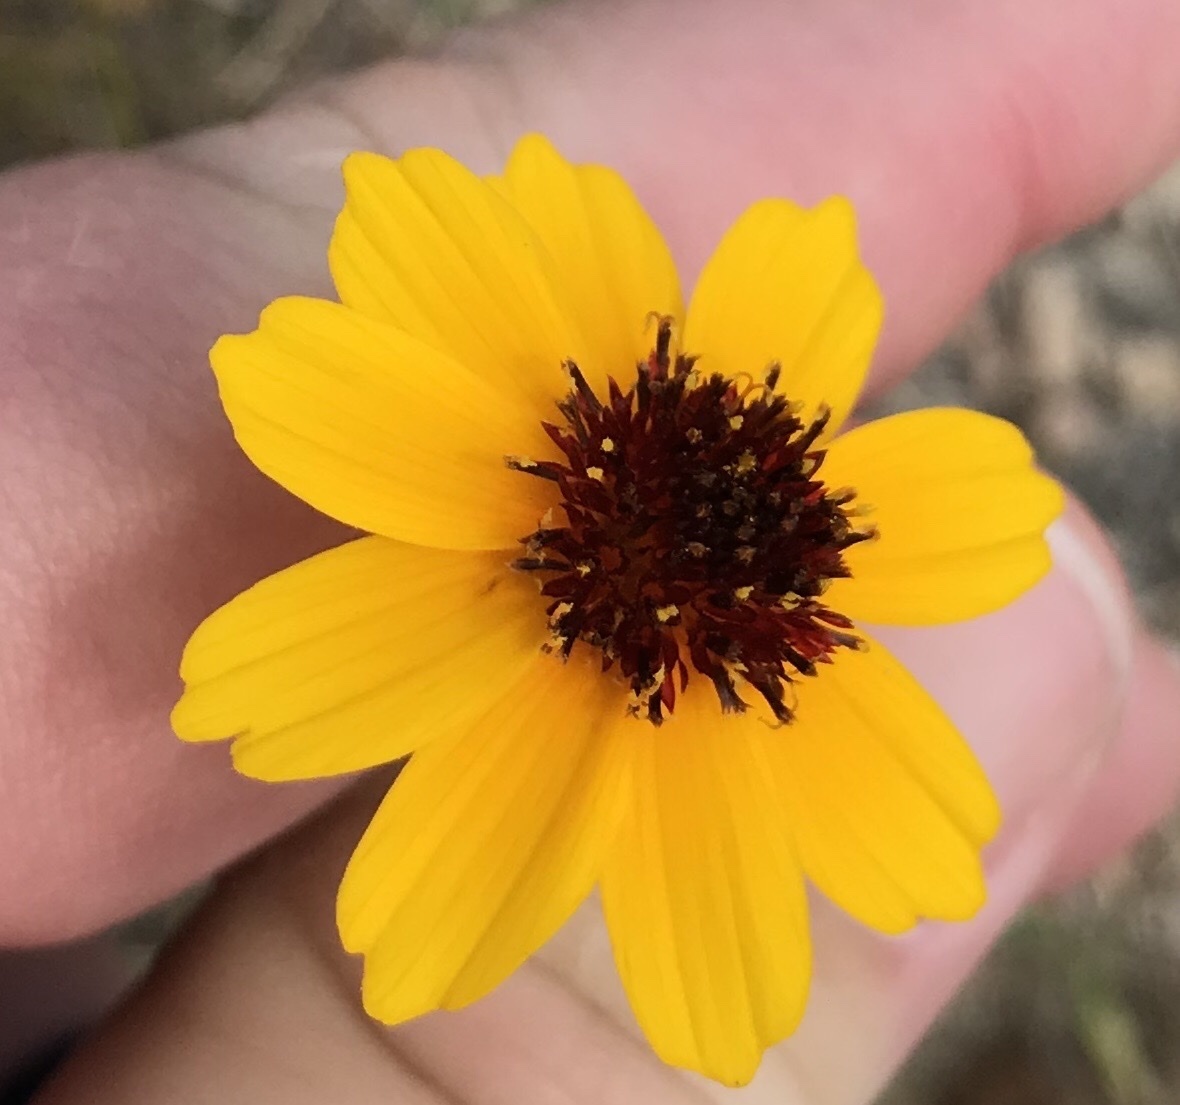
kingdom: Plantae
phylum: Tracheophyta
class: Magnoliopsida
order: Asterales
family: Asteraceae
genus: Thelesperma
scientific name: Thelesperma filifolium
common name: Stiff greenthread
